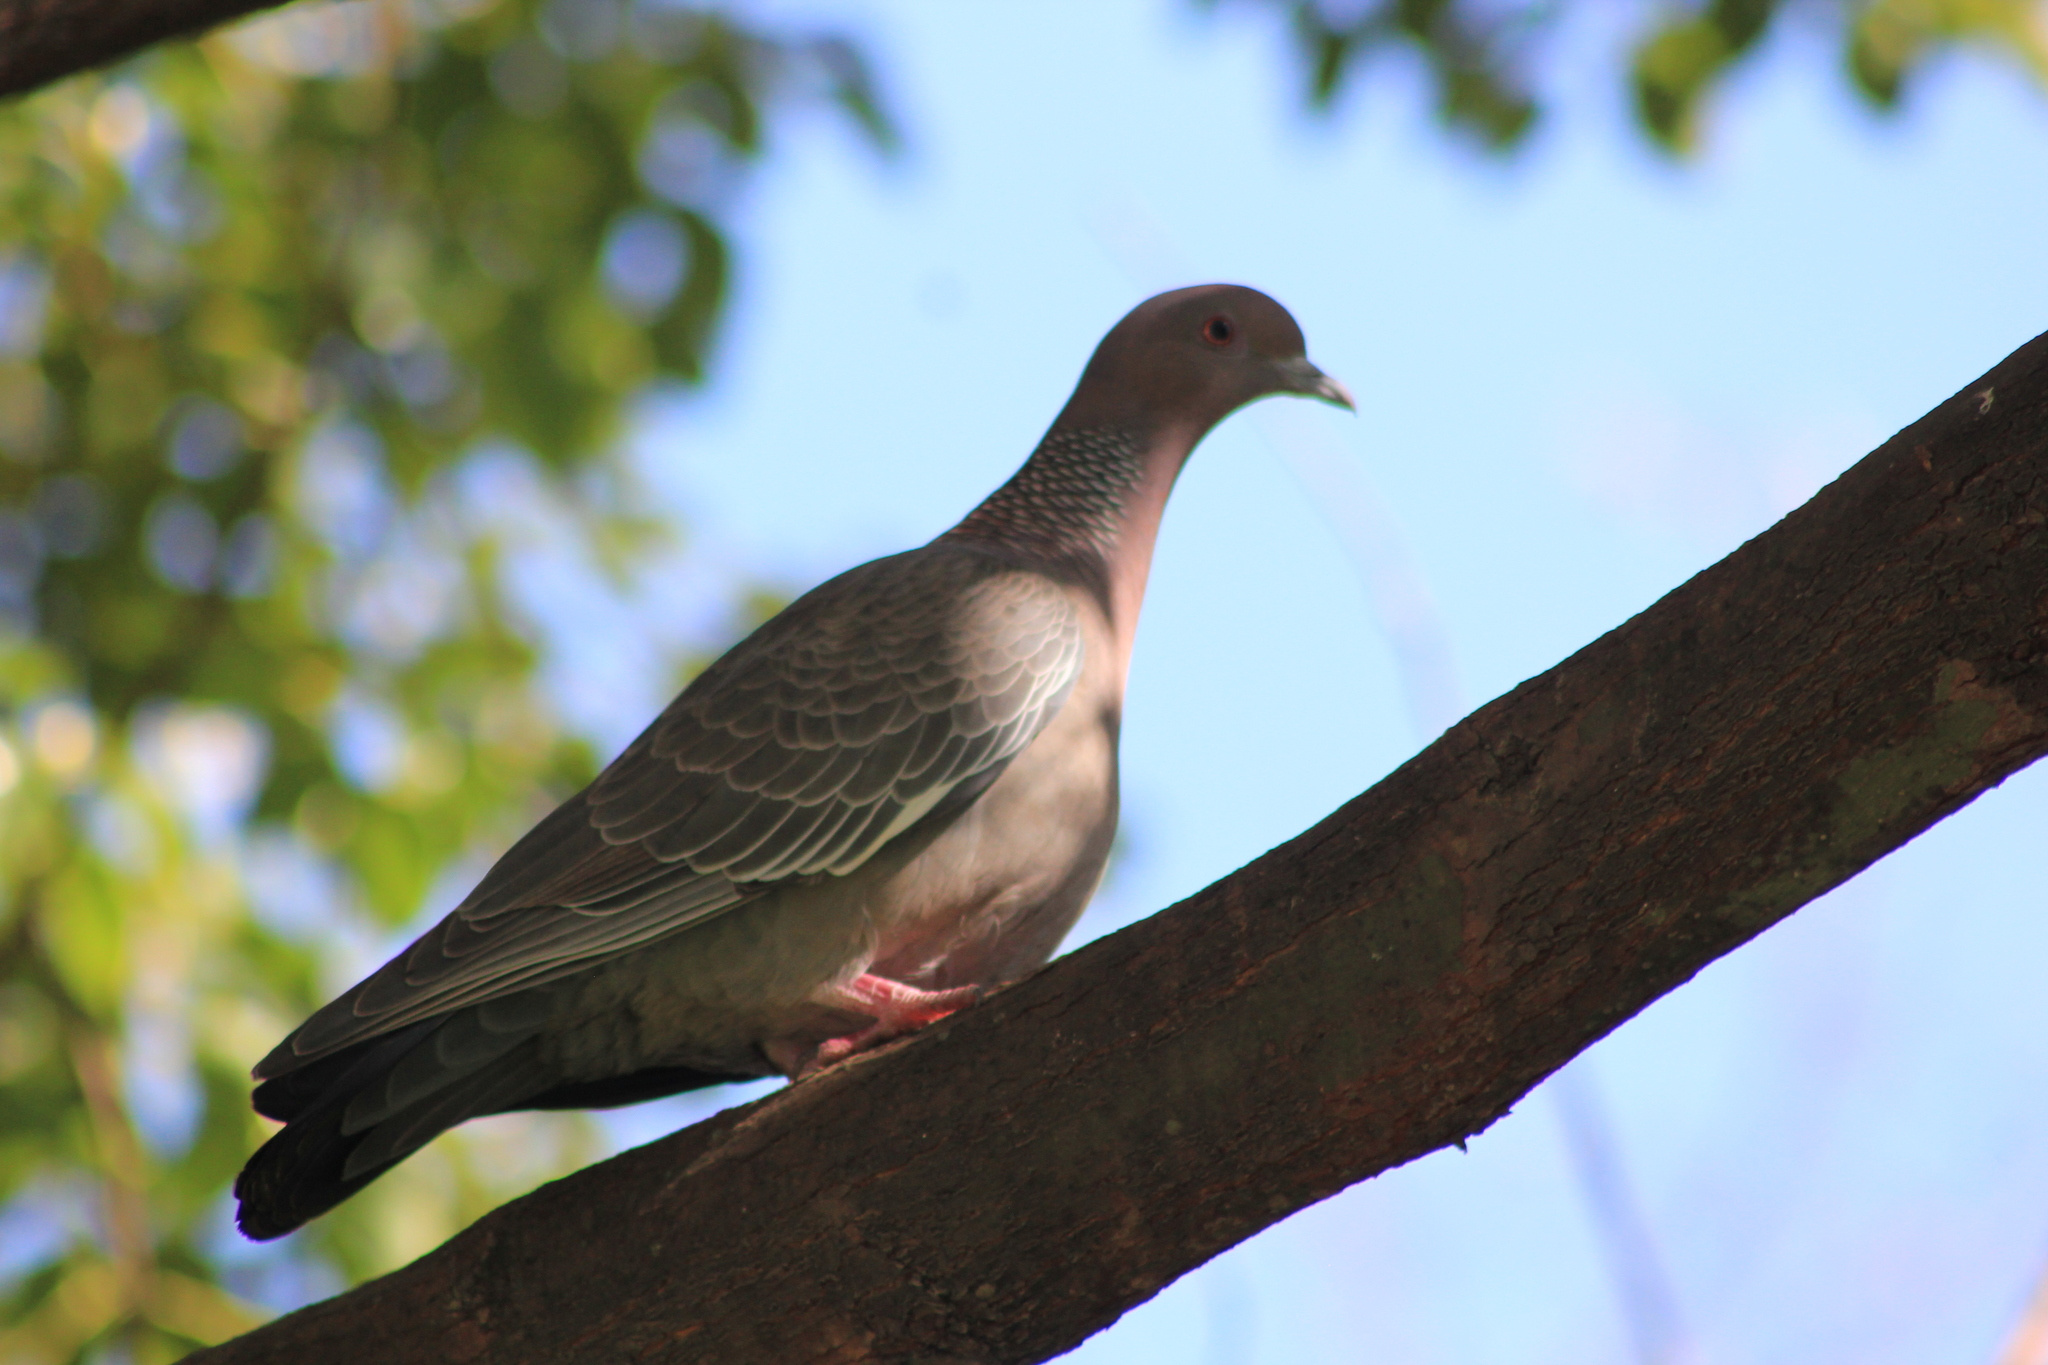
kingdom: Animalia
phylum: Chordata
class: Aves
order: Columbiformes
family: Columbidae
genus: Patagioenas
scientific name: Patagioenas picazuro
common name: Picazuro pigeon
